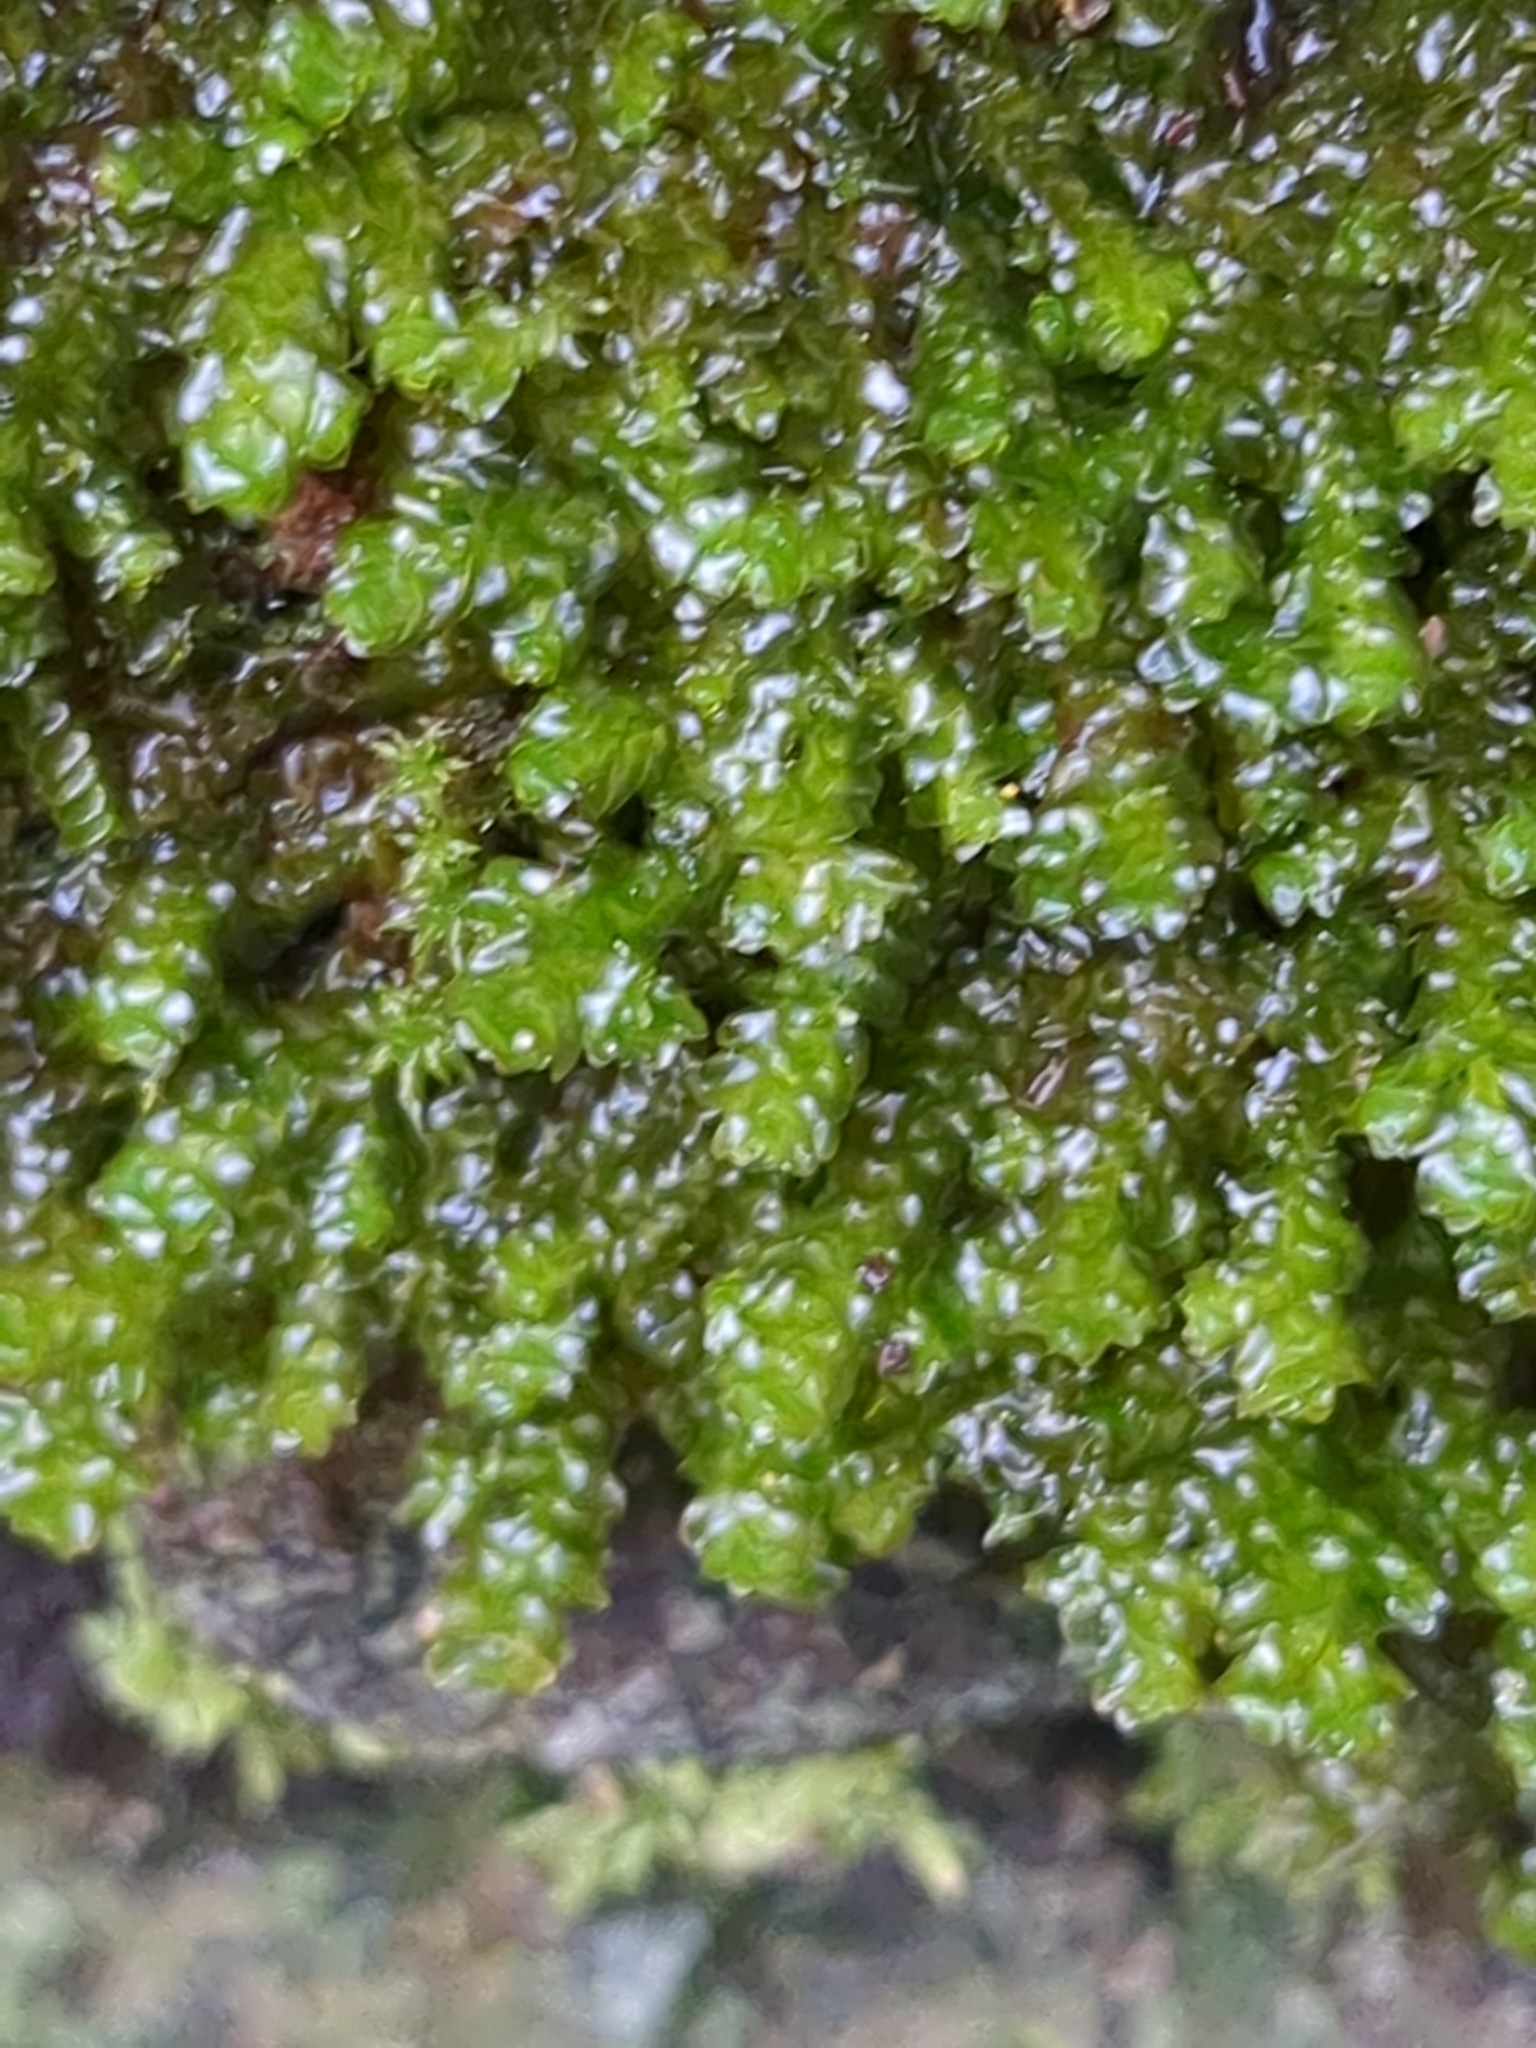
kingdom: Plantae
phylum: Marchantiophyta
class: Jungermanniopsida
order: Porellales
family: Porellaceae
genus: Porella
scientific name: Porella platyphylla
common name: Wall scalewort
